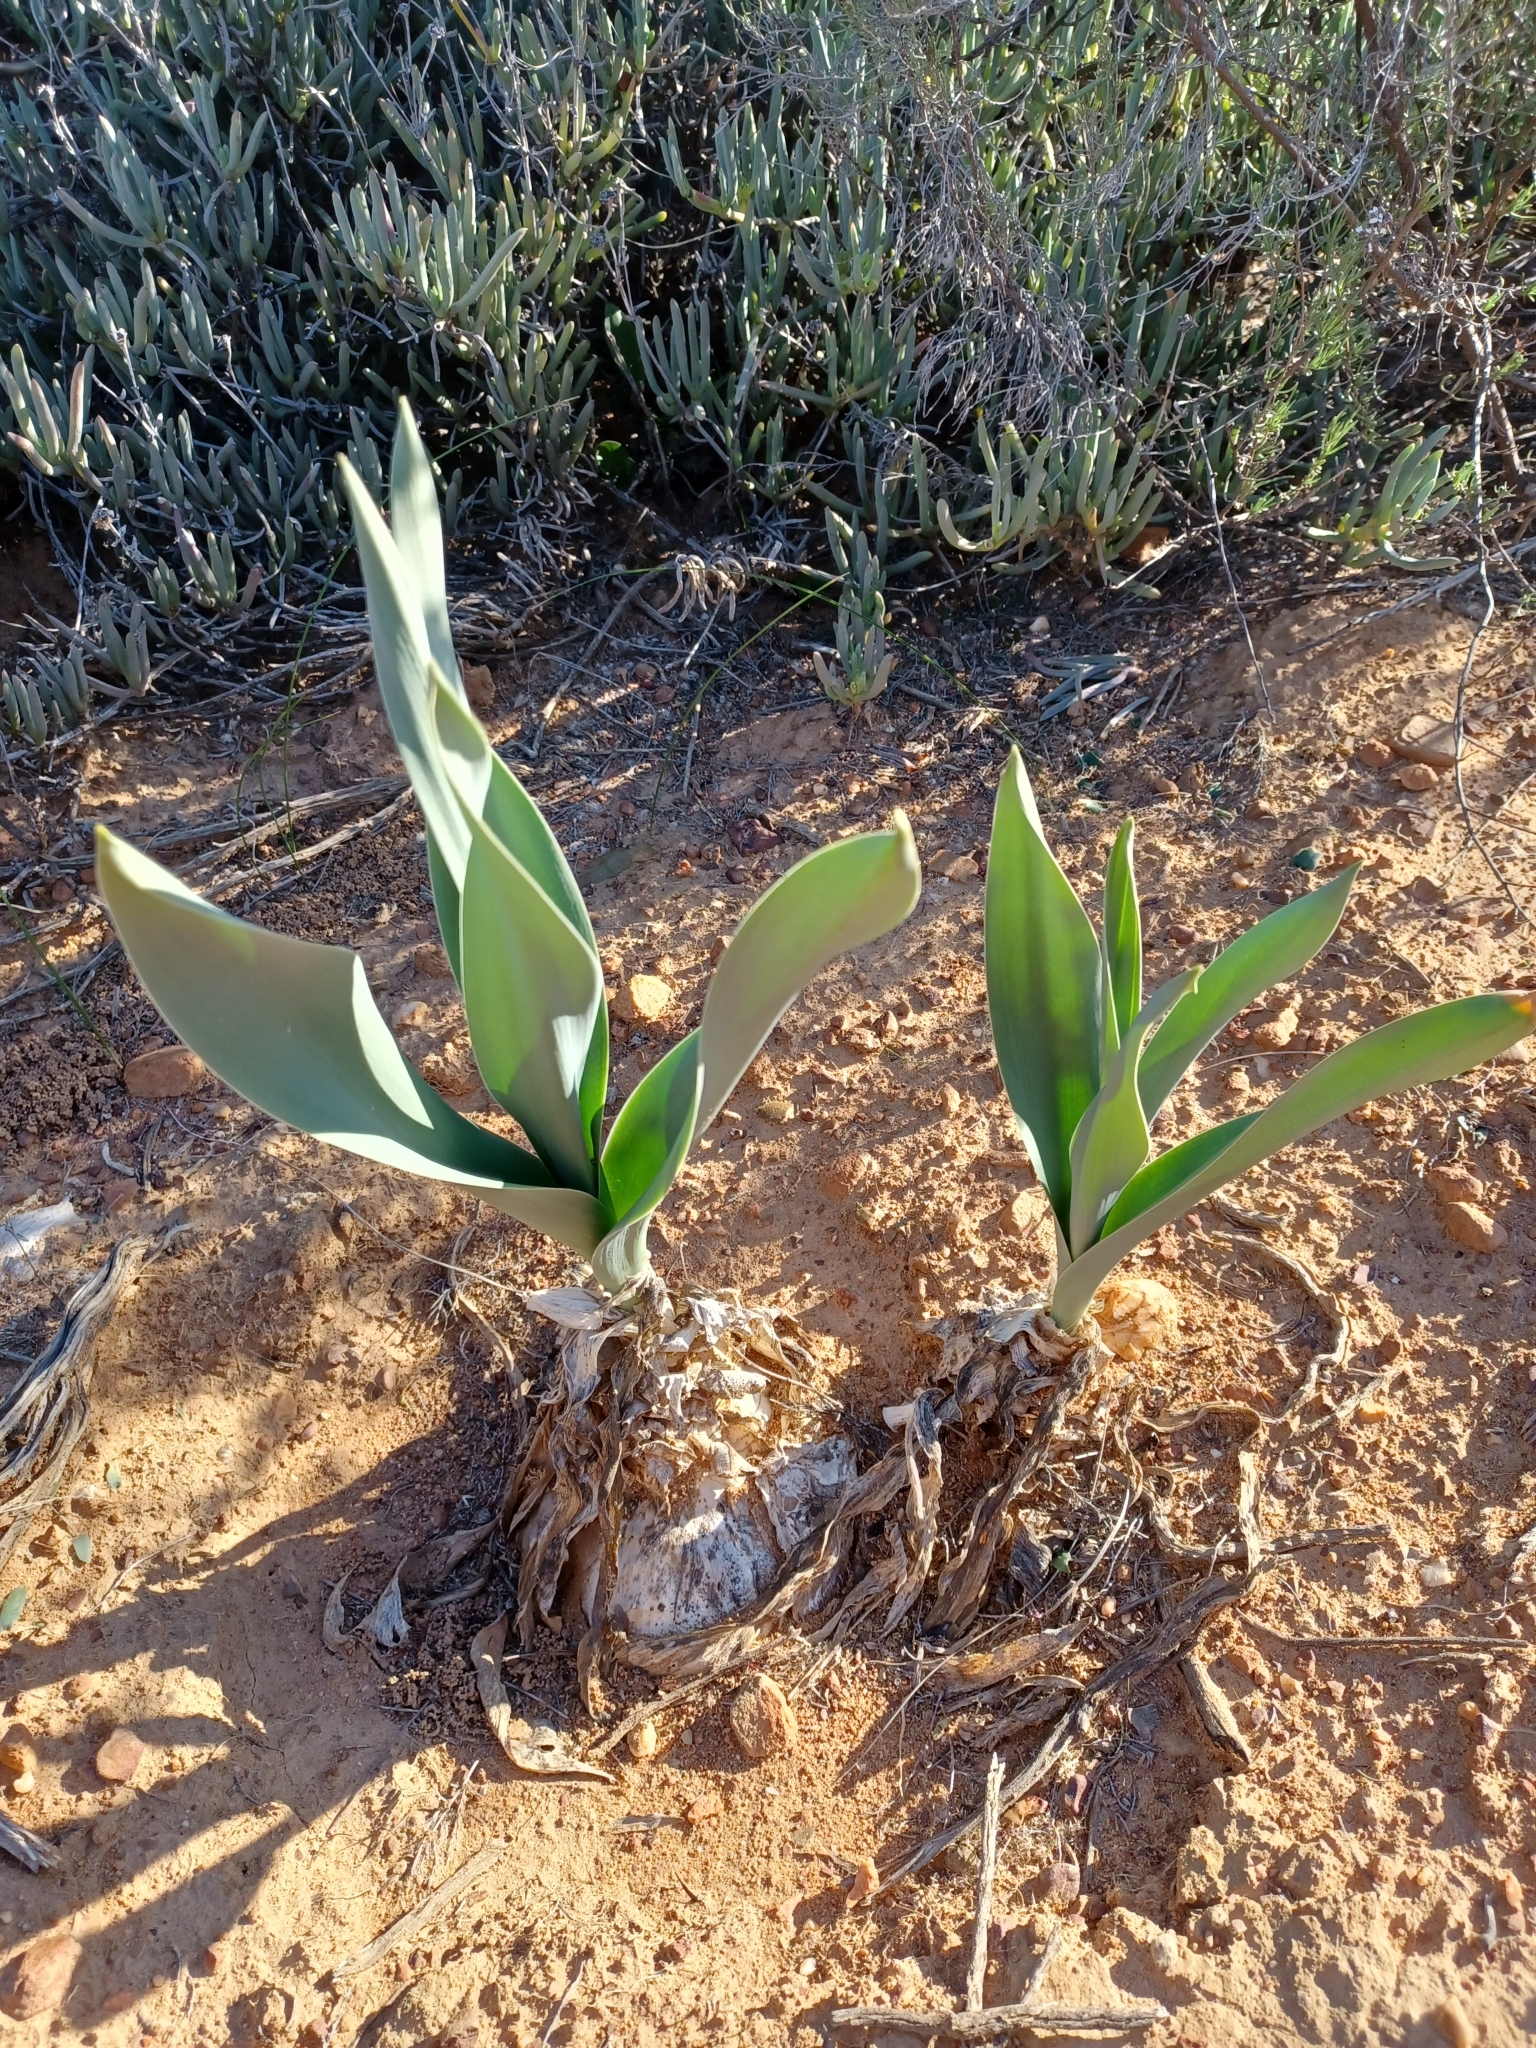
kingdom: Plantae
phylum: Tracheophyta
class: Liliopsida
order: Asparagales
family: Asparagaceae
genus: Drimia
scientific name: Drimia capensis
